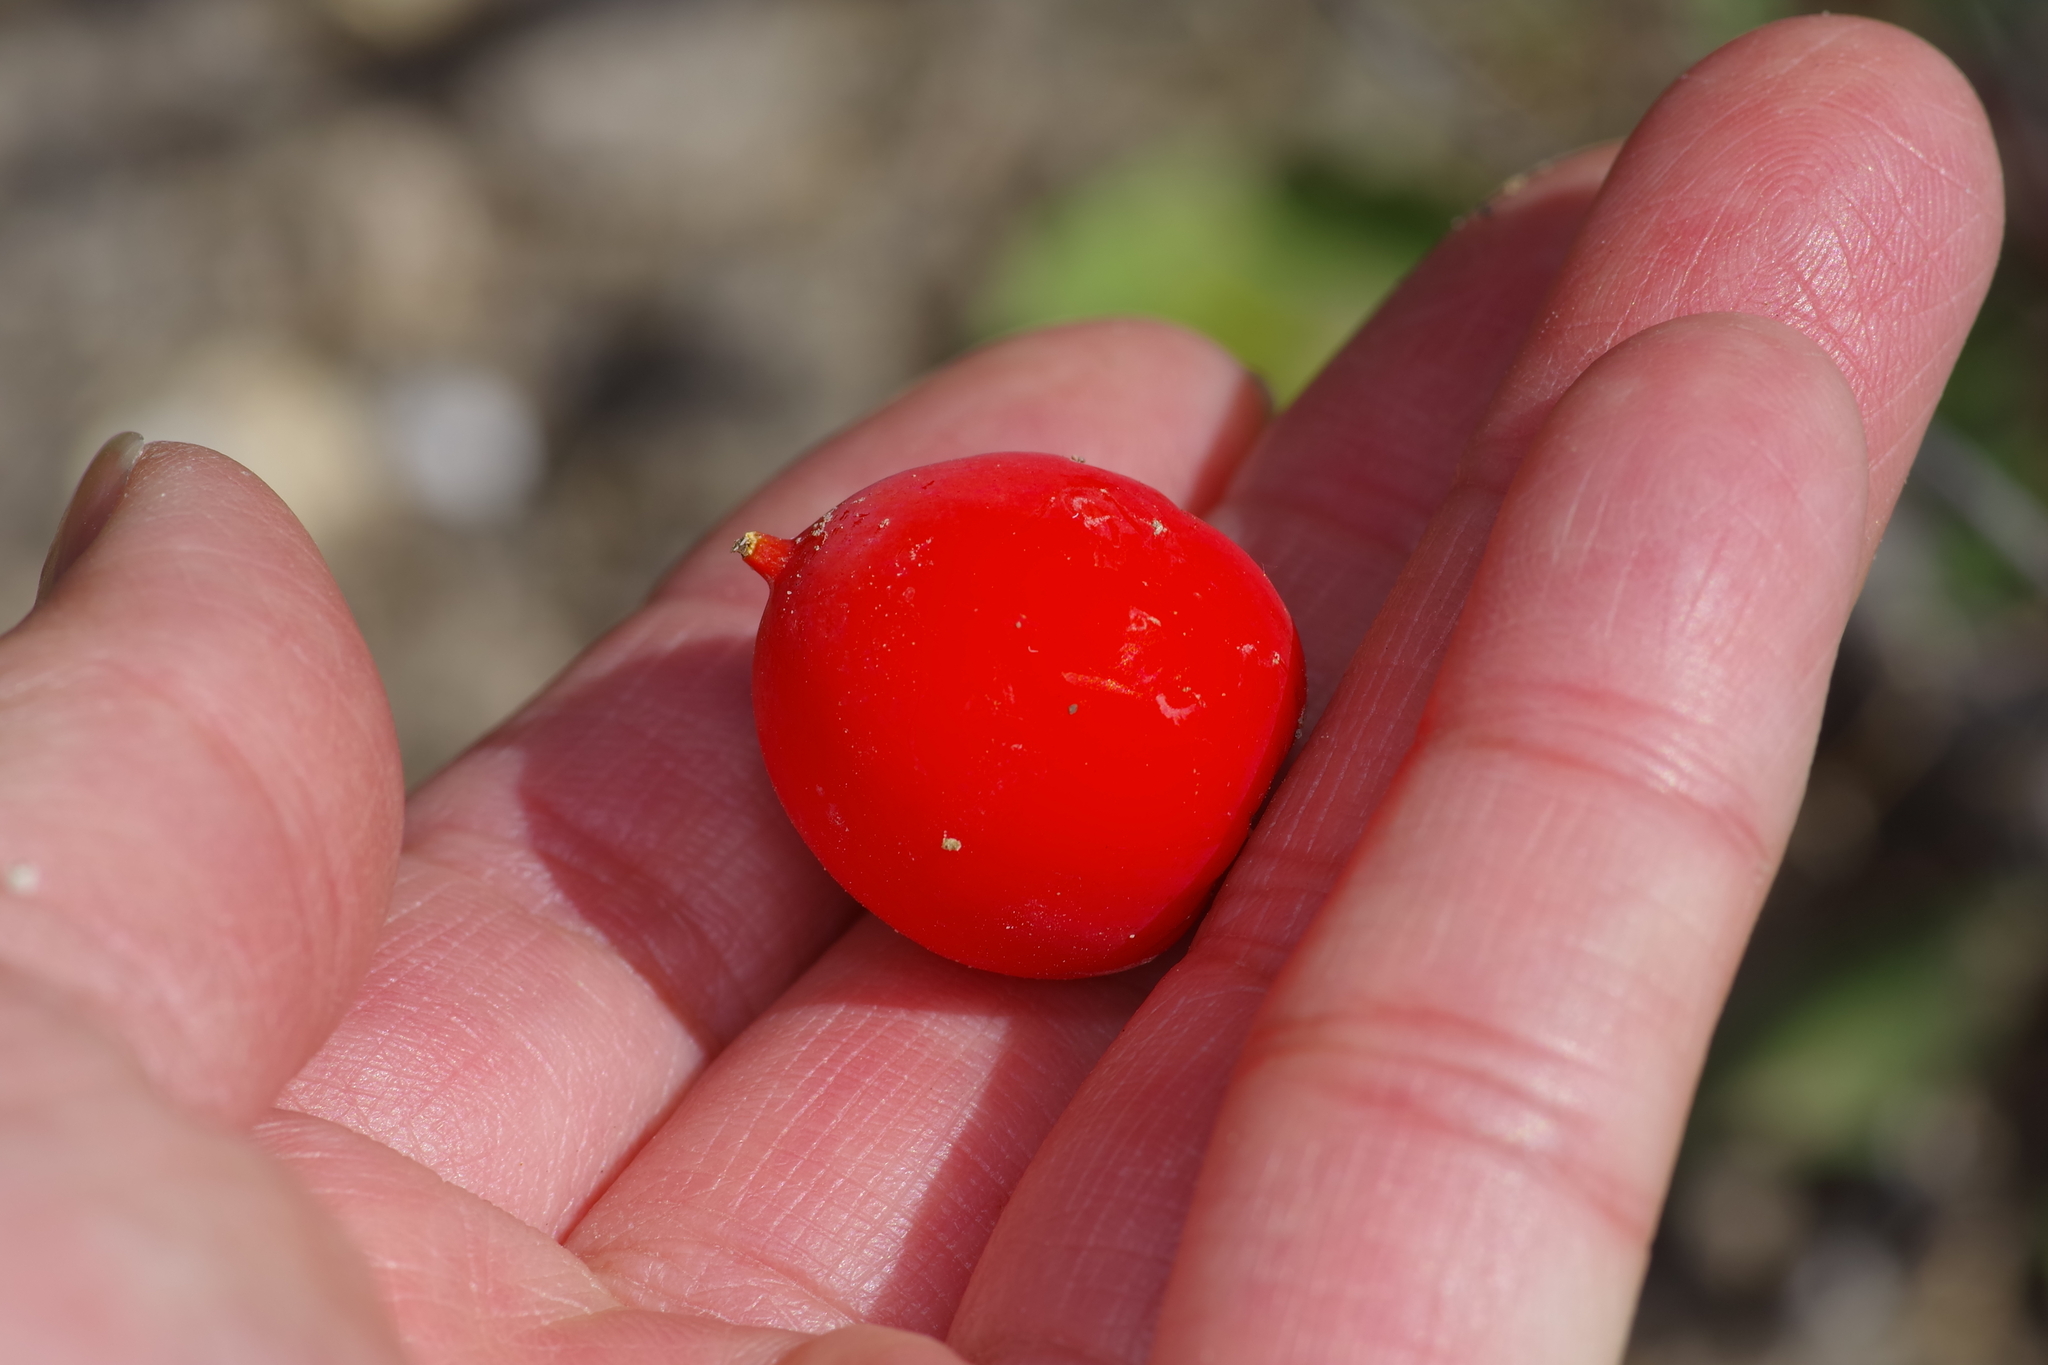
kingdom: Plantae
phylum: Tracheophyta
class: Magnoliopsida
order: Cucurbitales
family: Cucurbitaceae
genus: Ibervillea
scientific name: Ibervillea lindheimeri
